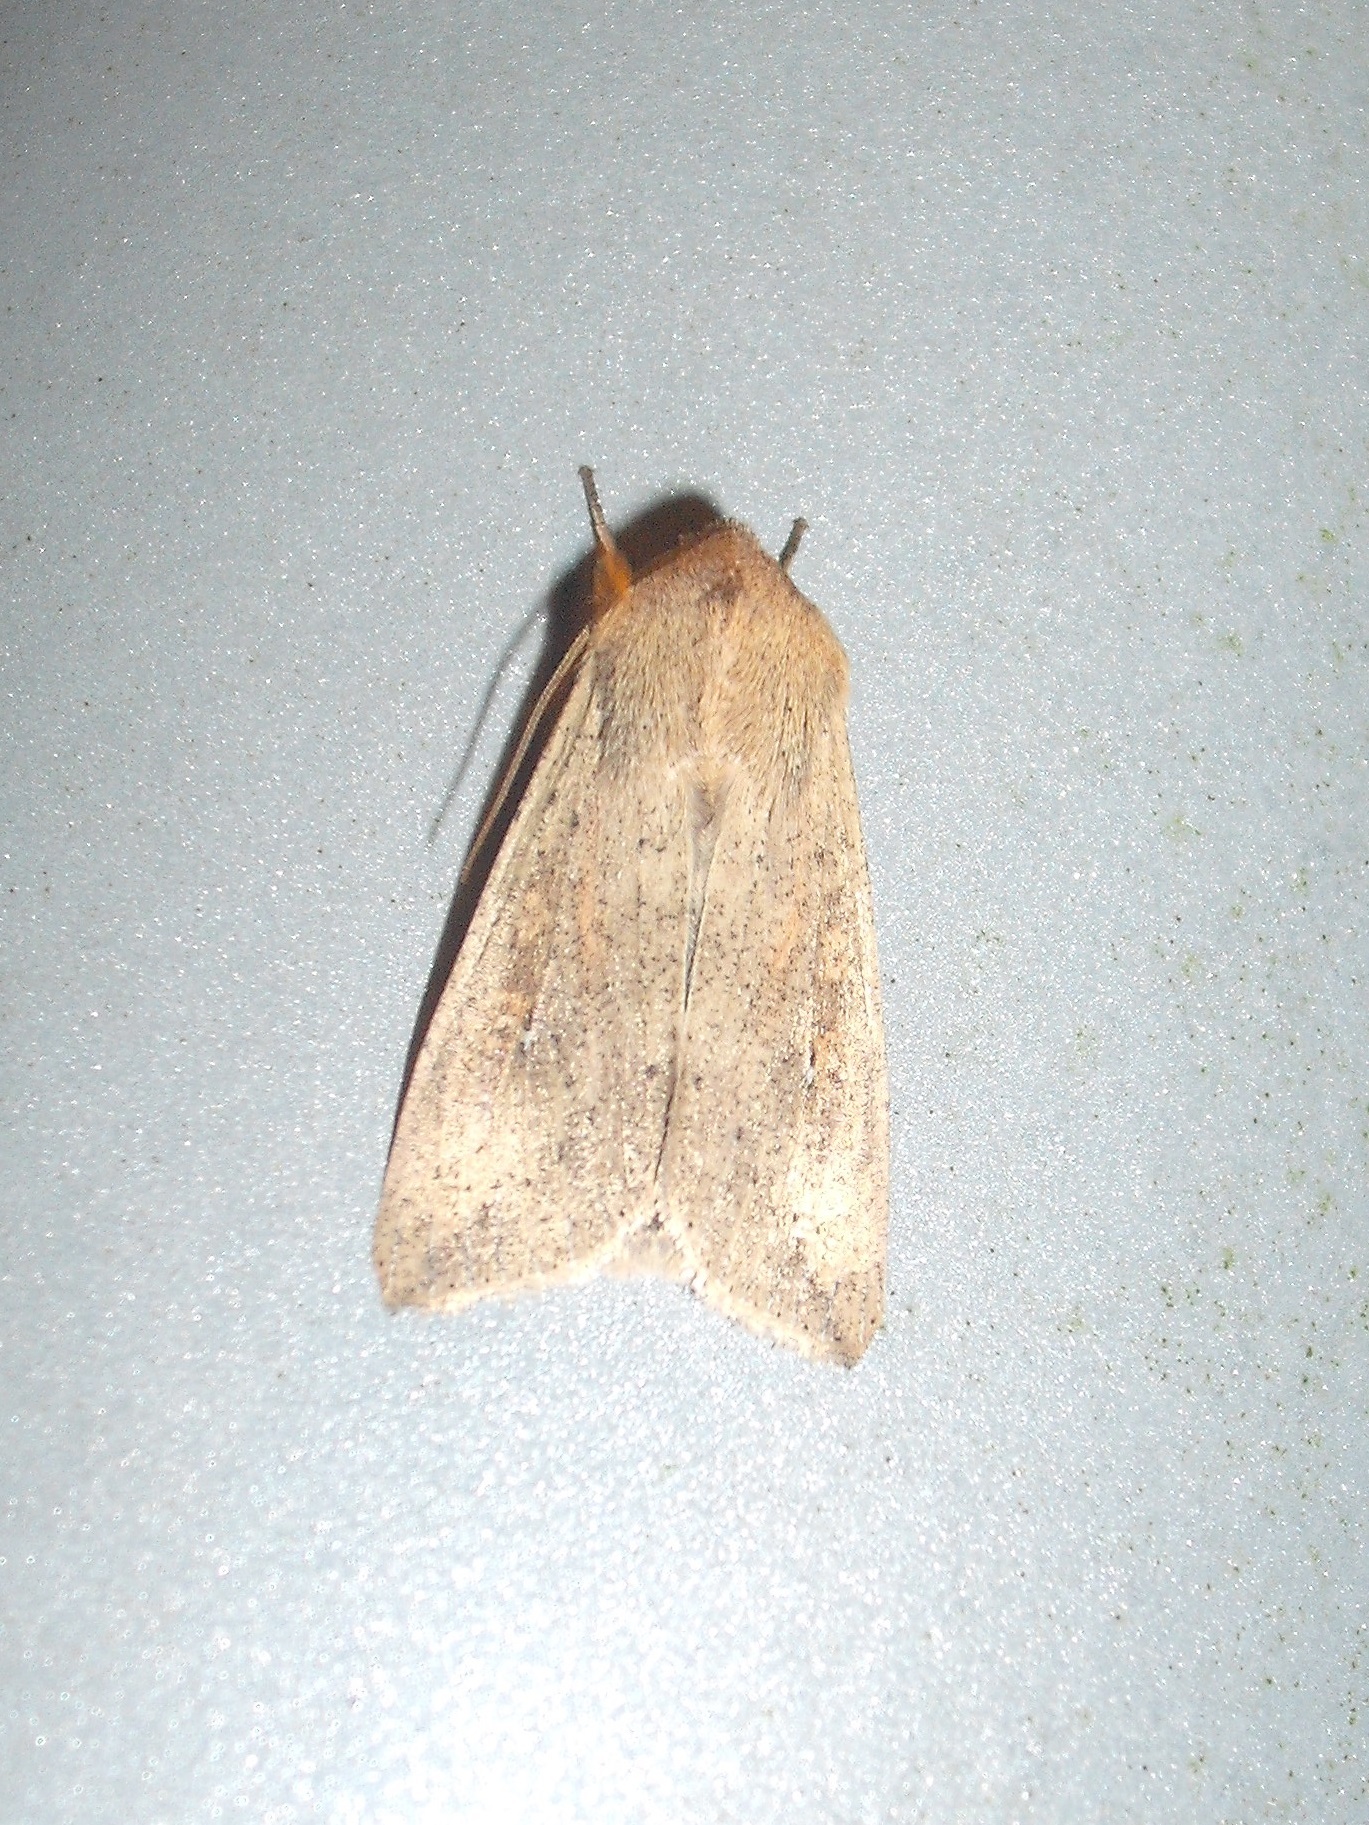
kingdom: Animalia
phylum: Arthropoda
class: Insecta
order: Lepidoptera
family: Noctuidae
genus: Mythimna
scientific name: Mythimna separata
